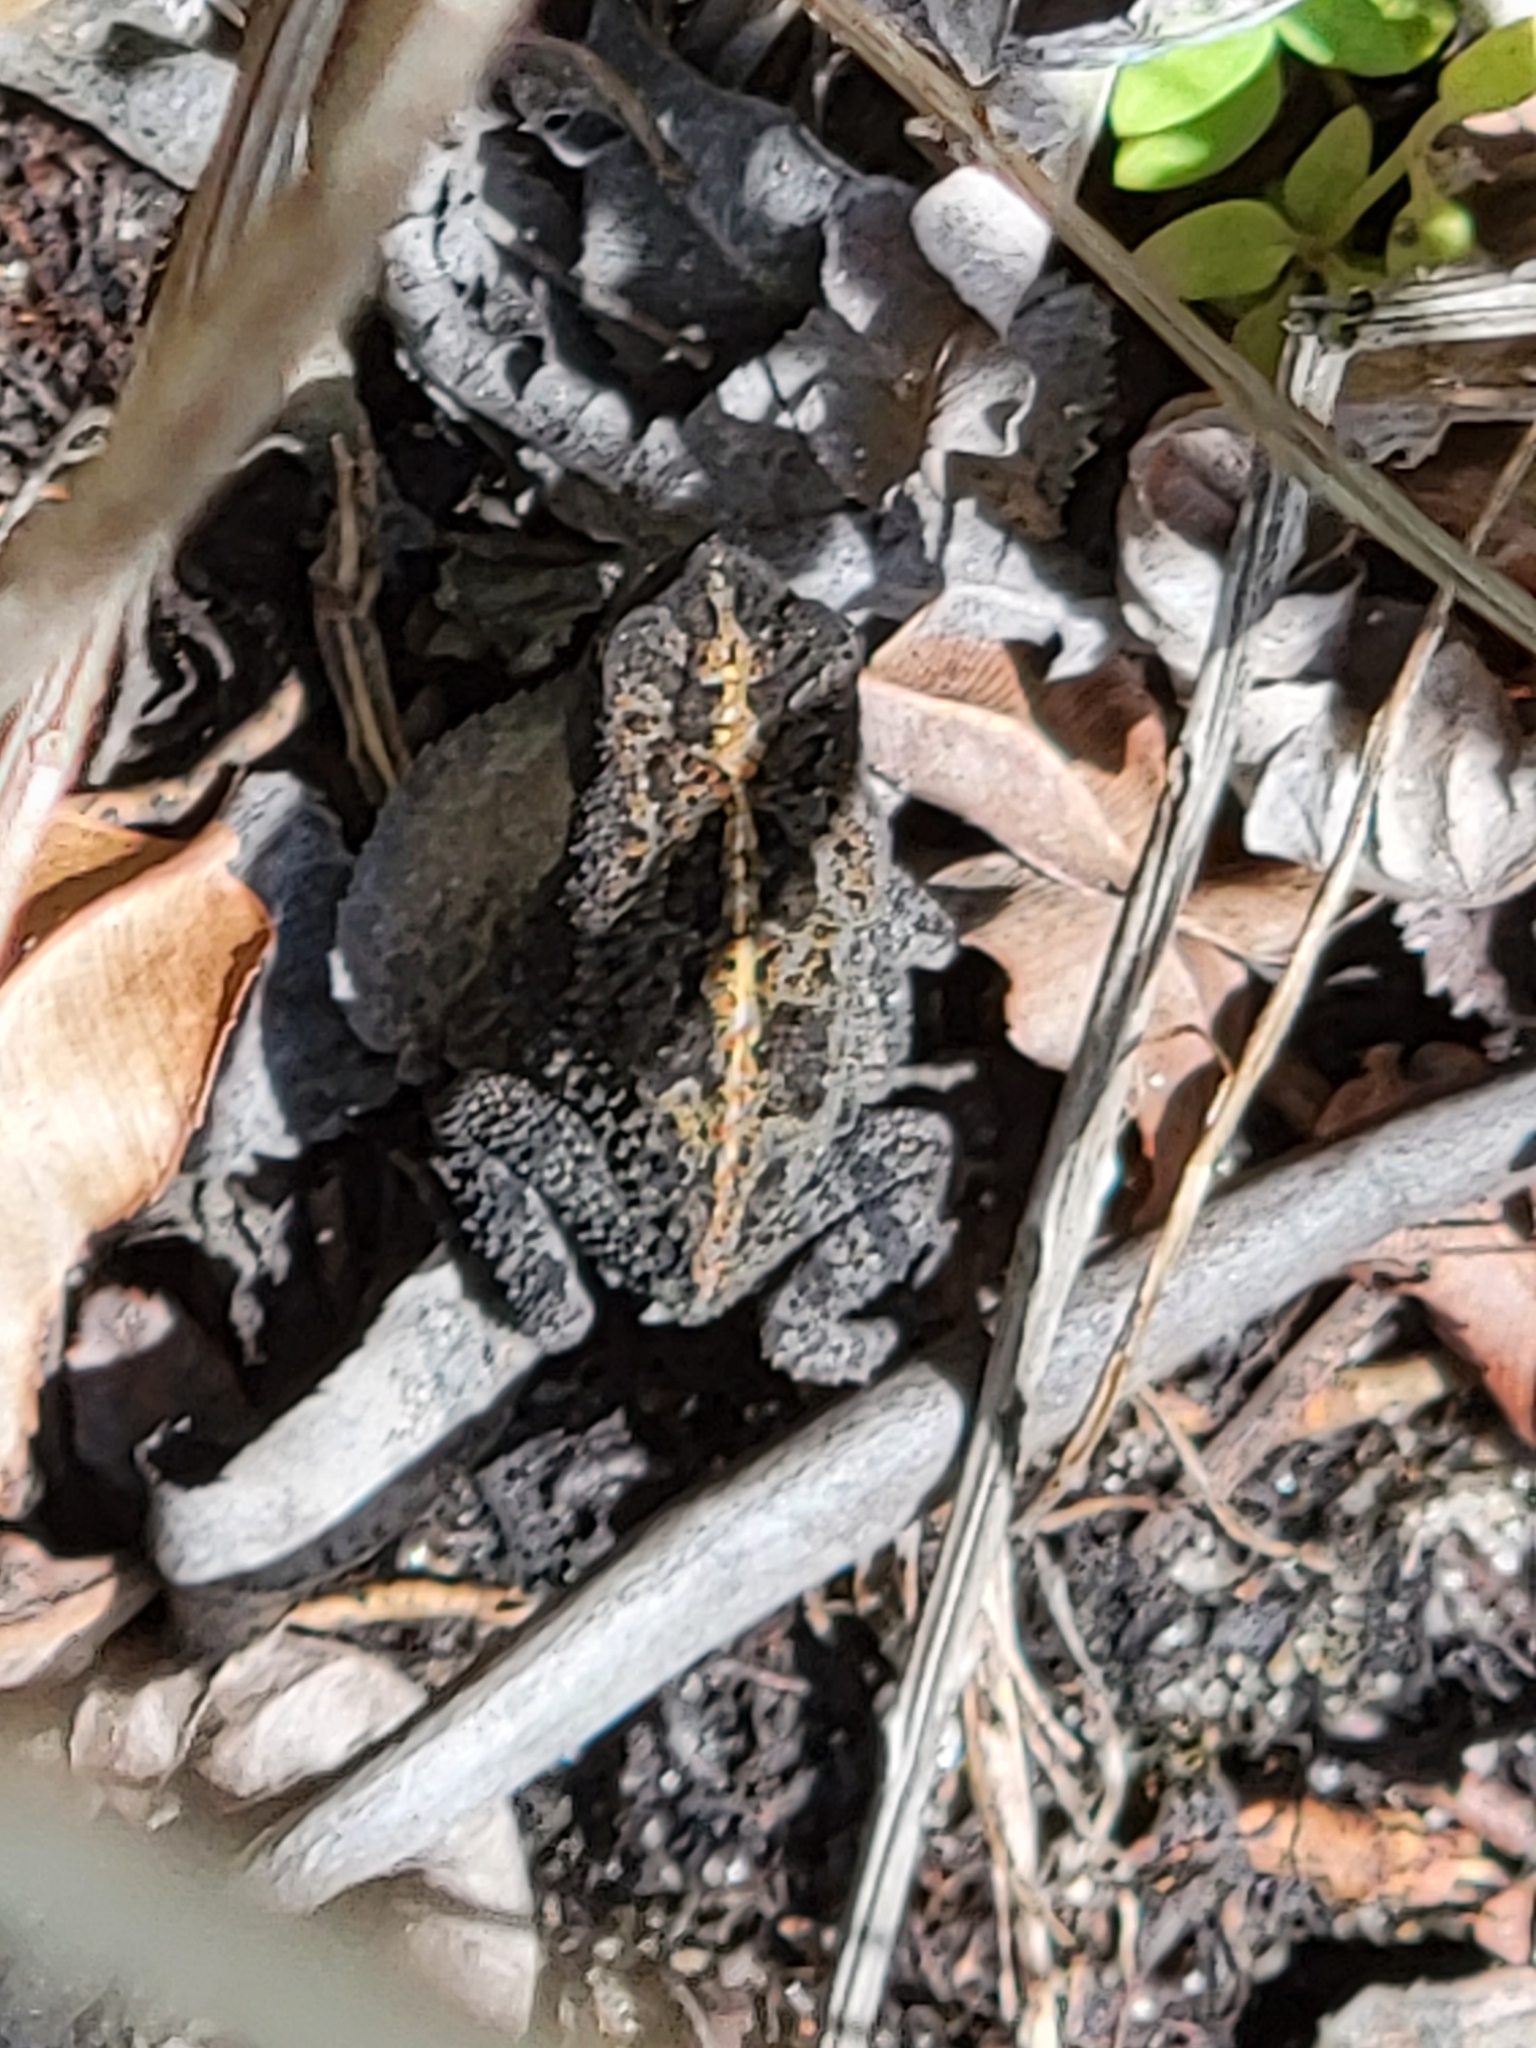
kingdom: Animalia
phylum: Chordata
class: Amphibia
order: Anura
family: Bufonidae
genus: Anaxyrus
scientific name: Anaxyrus quercicus
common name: Oak toad
